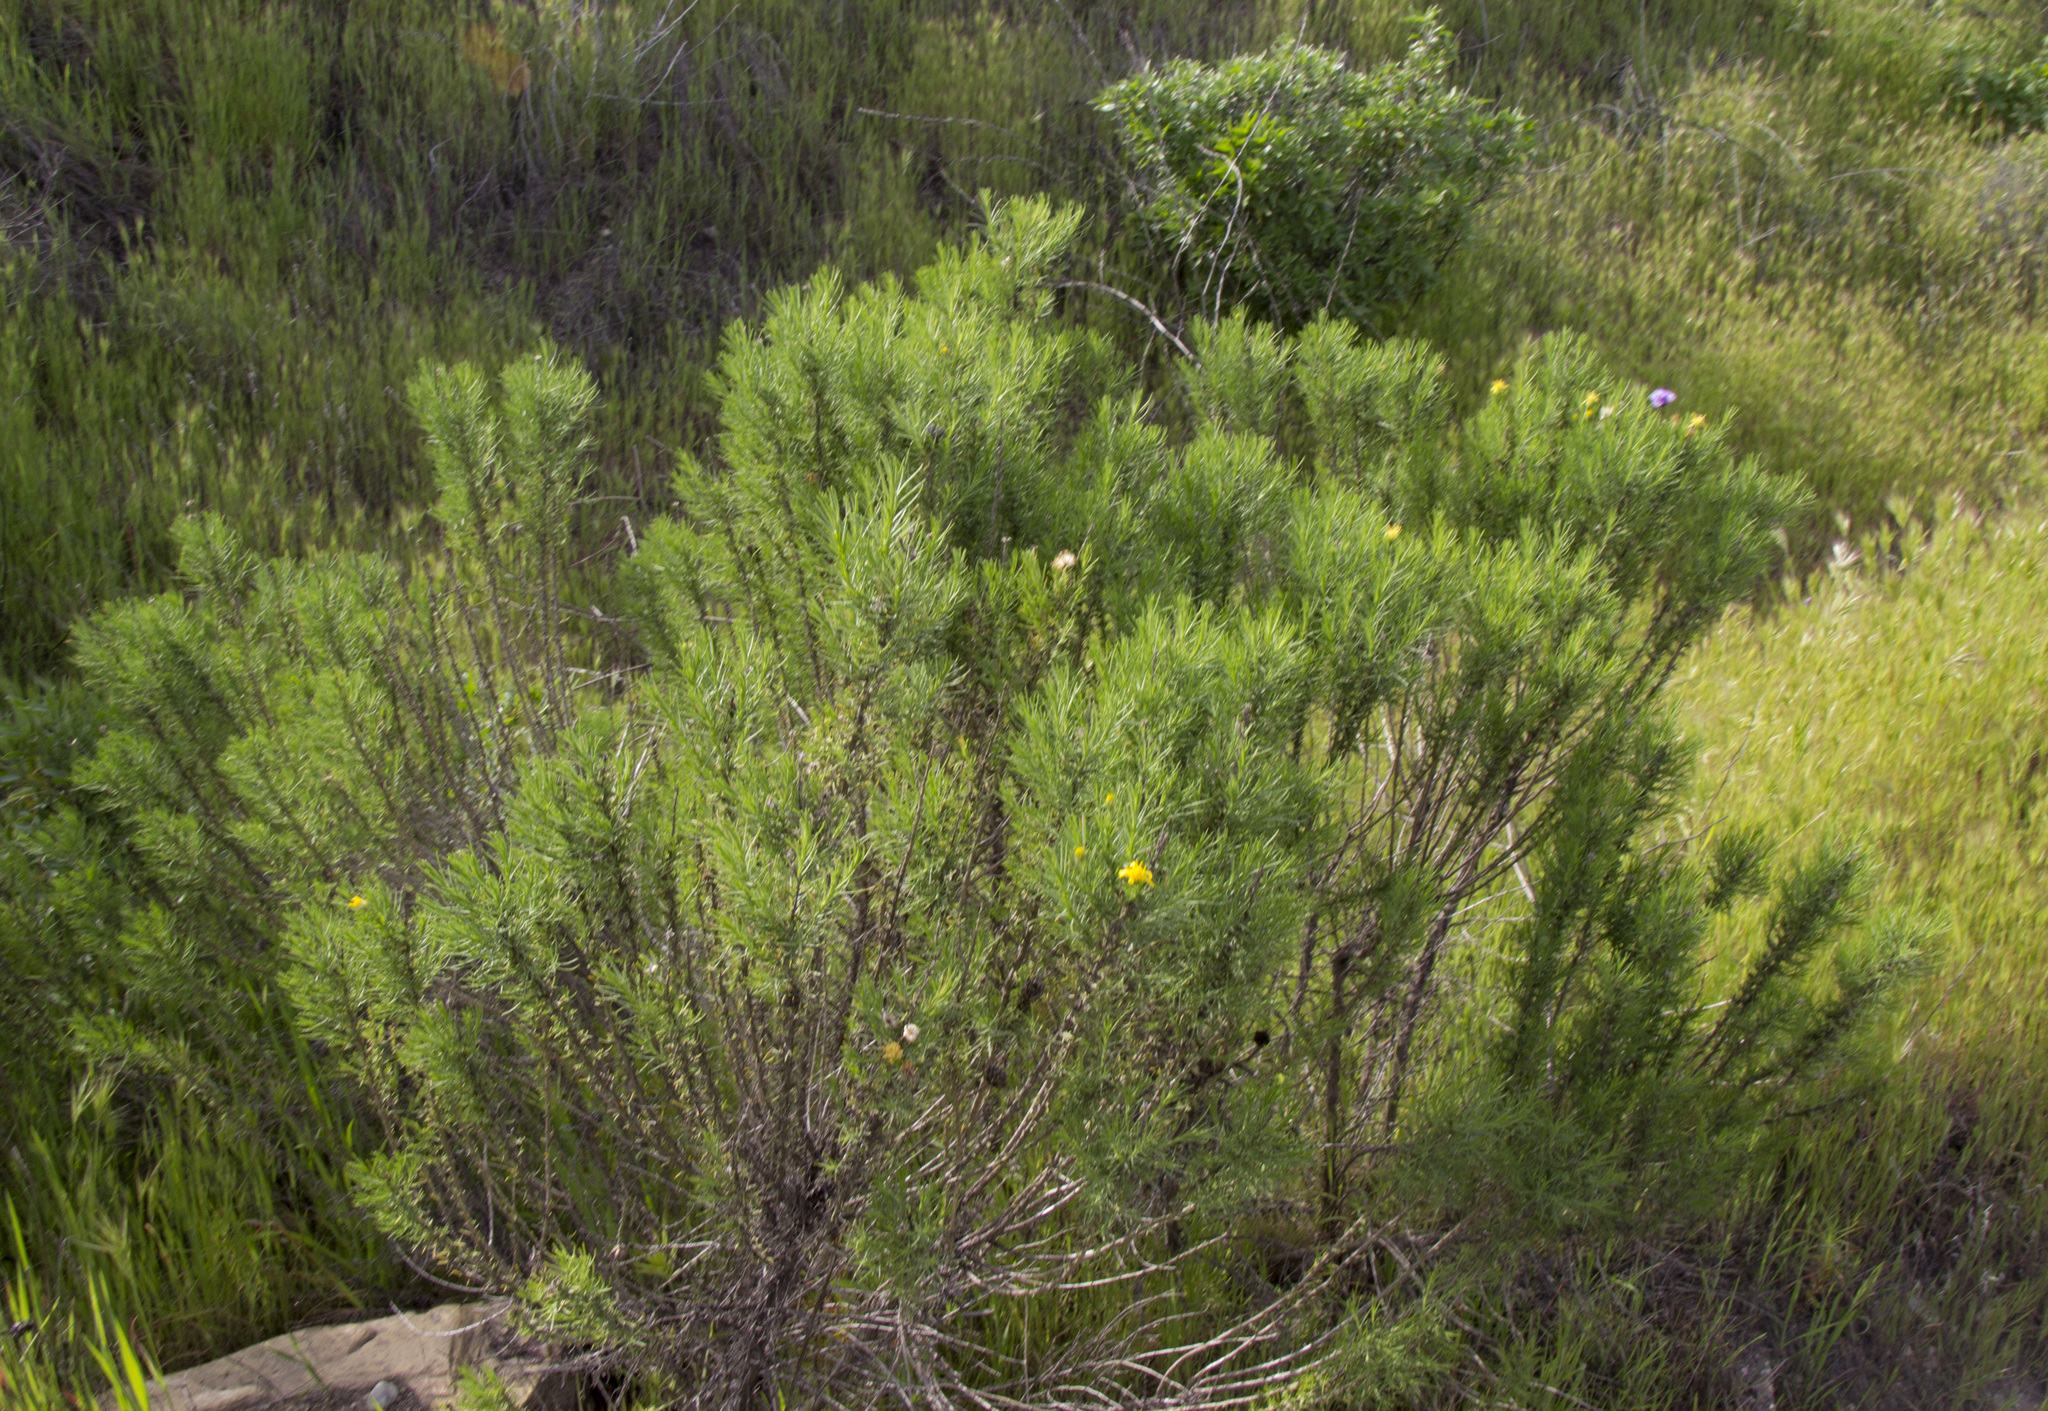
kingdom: Plantae
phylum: Tracheophyta
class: Magnoliopsida
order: Asterales
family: Asteraceae
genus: Ericameria
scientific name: Ericameria linearifolia
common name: Interior goldenbush
